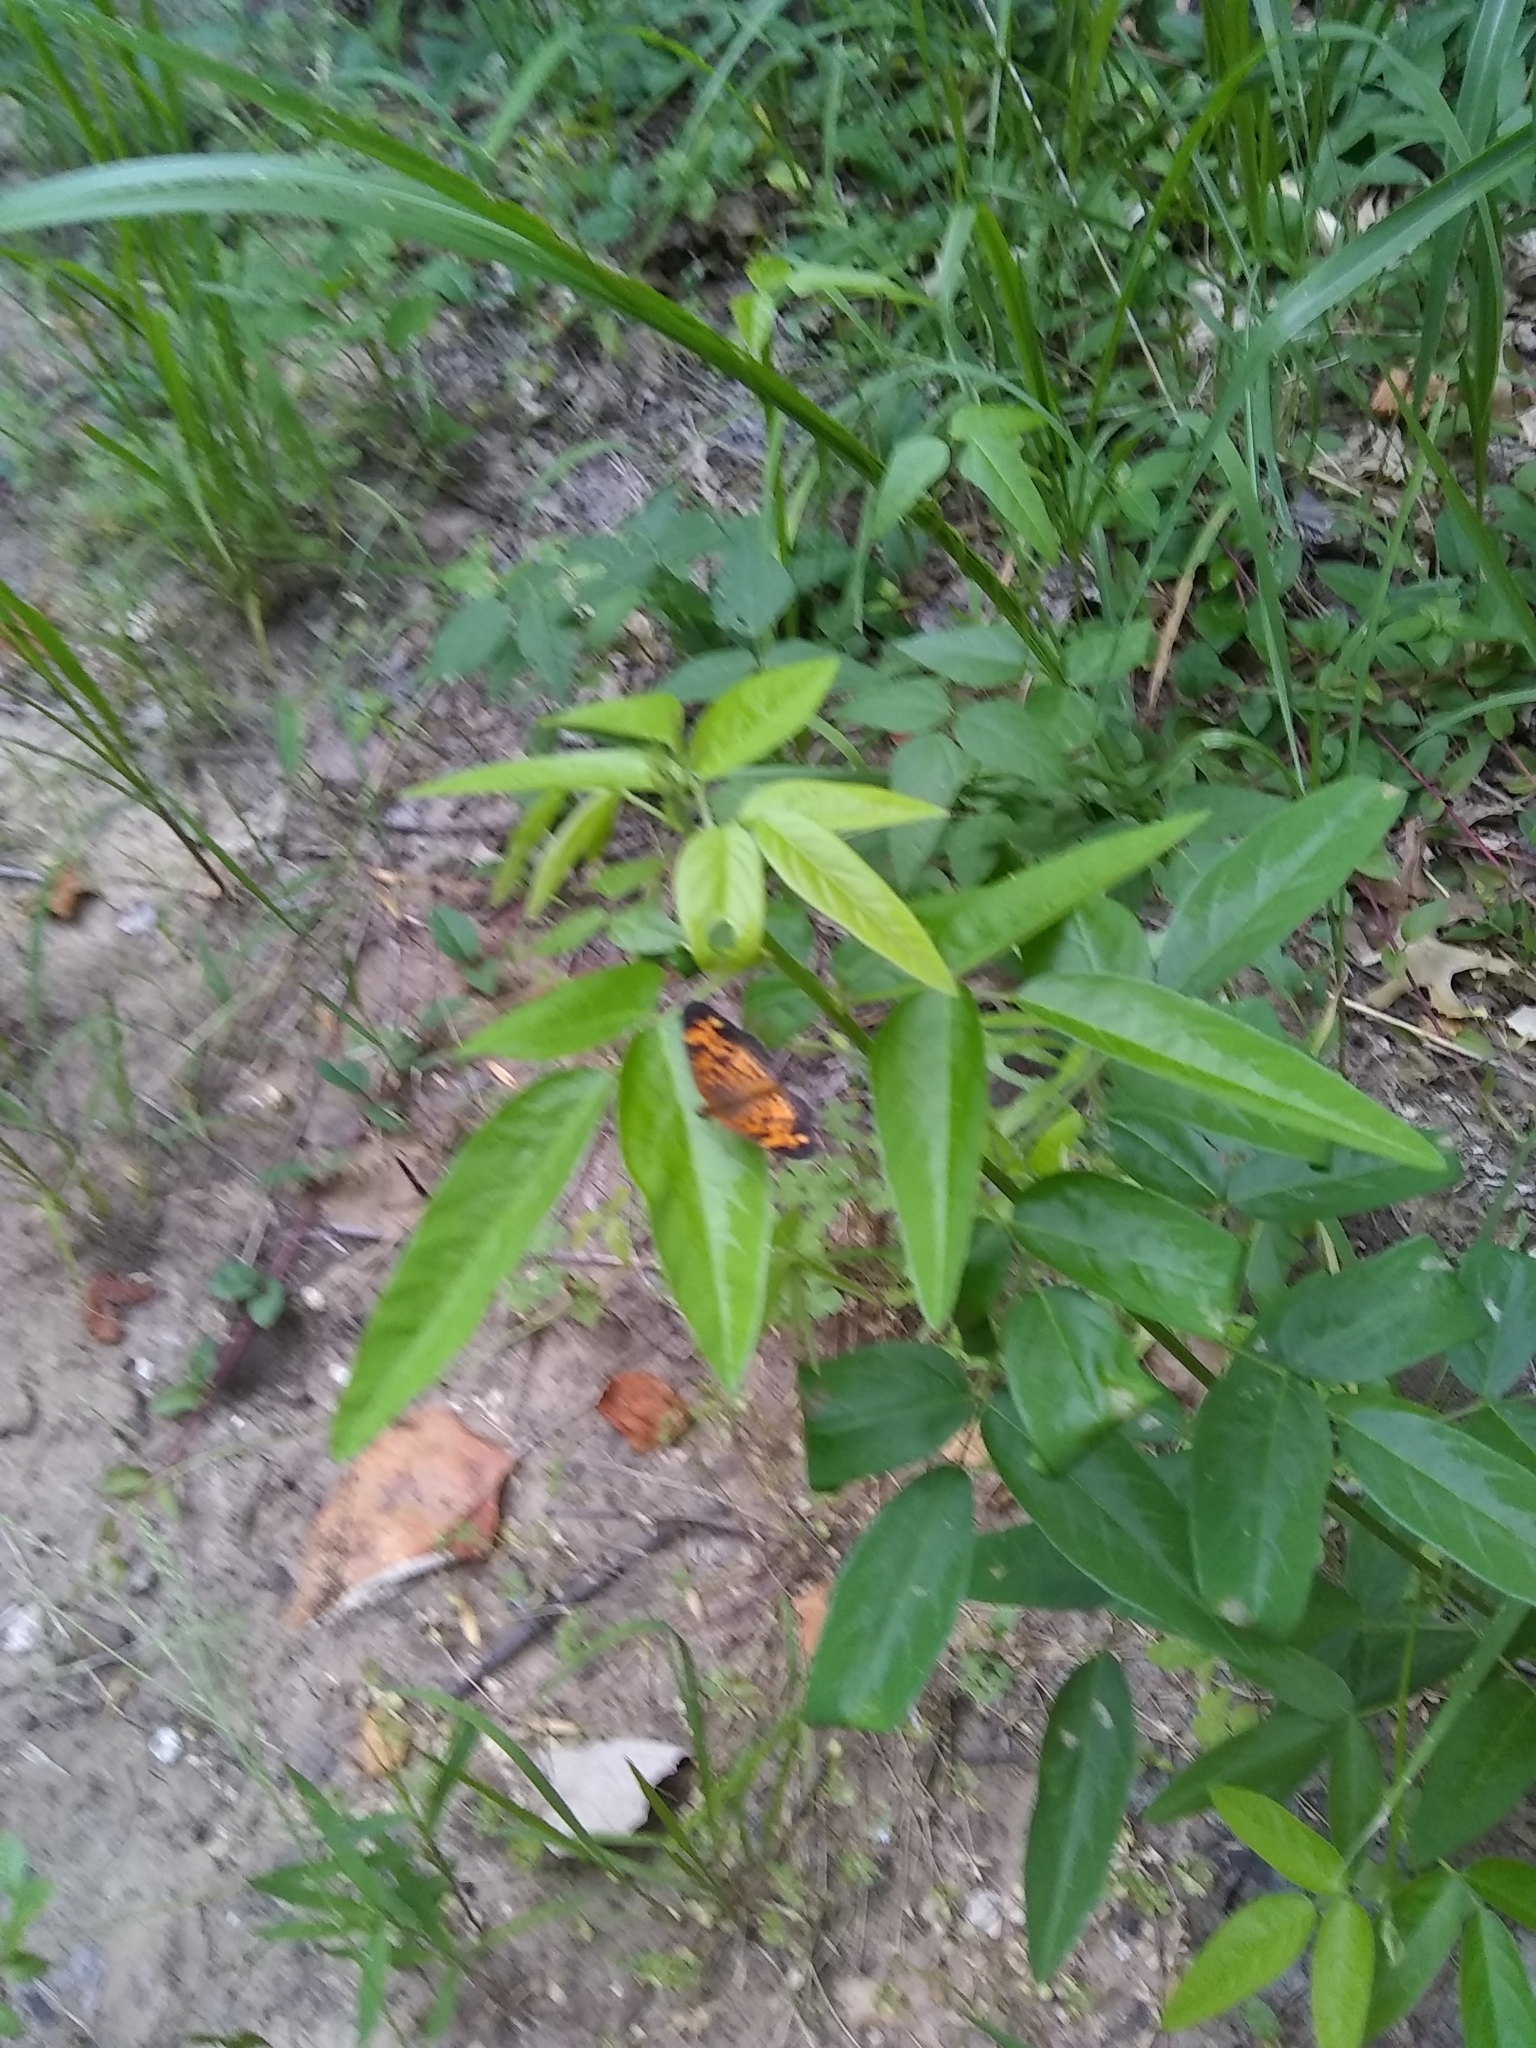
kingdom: Animalia
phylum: Arthropoda
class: Insecta
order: Lepidoptera
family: Nymphalidae
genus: Phyciodes
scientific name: Phyciodes tharos
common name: Pearl crescent
